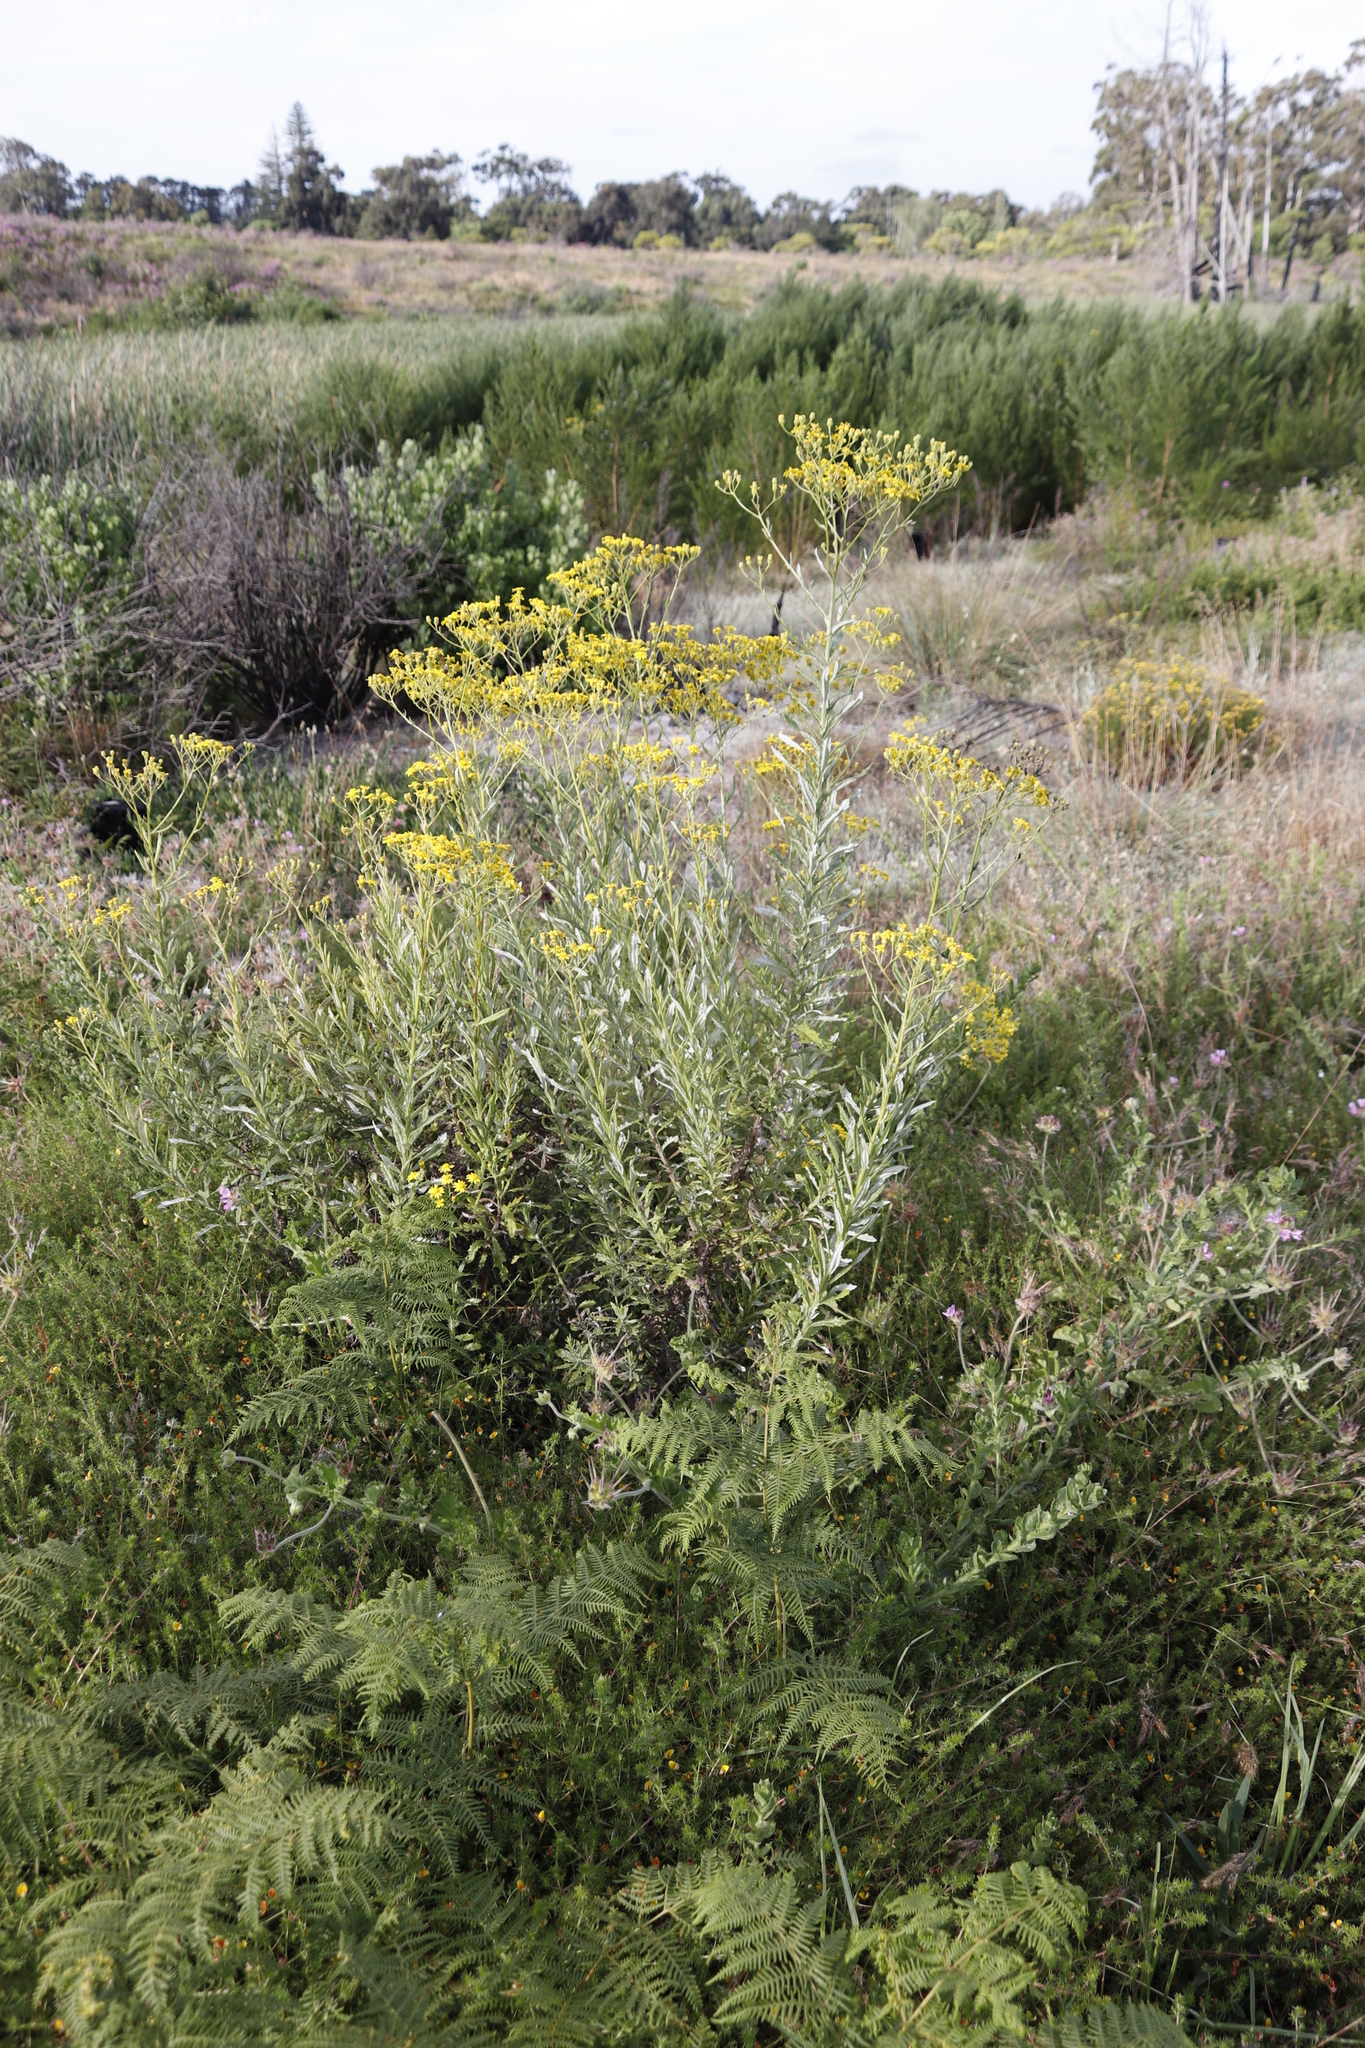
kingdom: Plantae
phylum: Tracheophyta
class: Magnoliopsida
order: Asterales
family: Asteraceae
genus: Senecio
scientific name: Senecio pterophorus
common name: Shoddy ragwort
